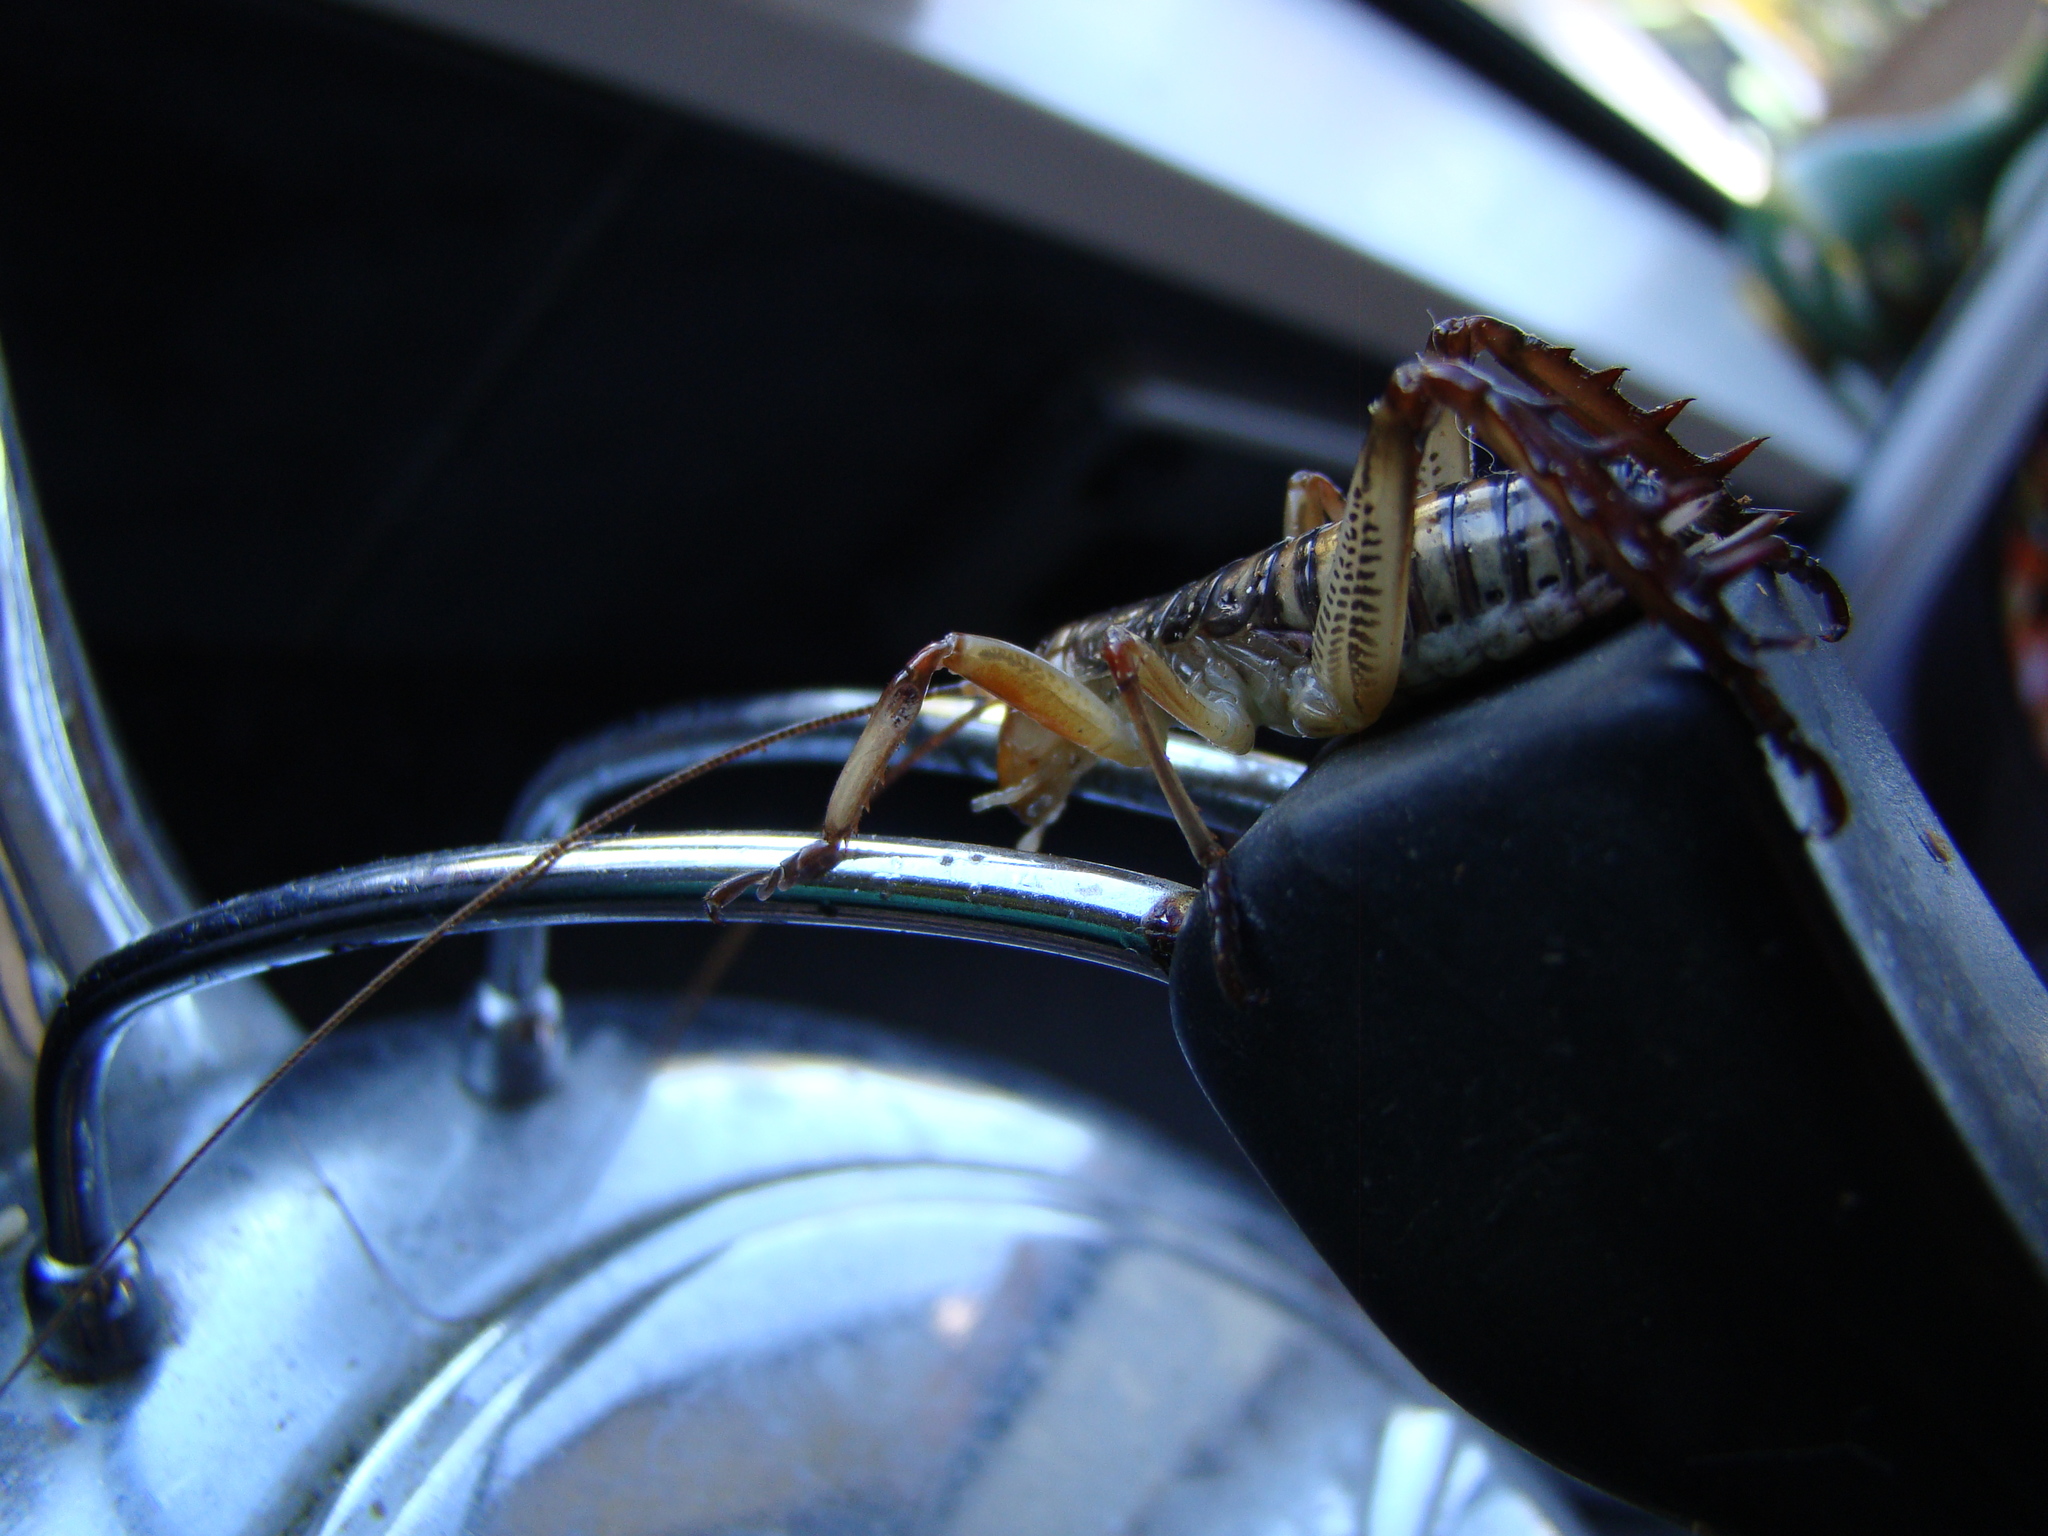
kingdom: Animalia
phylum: Arthropoda
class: Insecta
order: Orthoptera
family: Anostostomatidae
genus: Hemideina
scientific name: Hemideina crassidens
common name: Wellington tree weta
